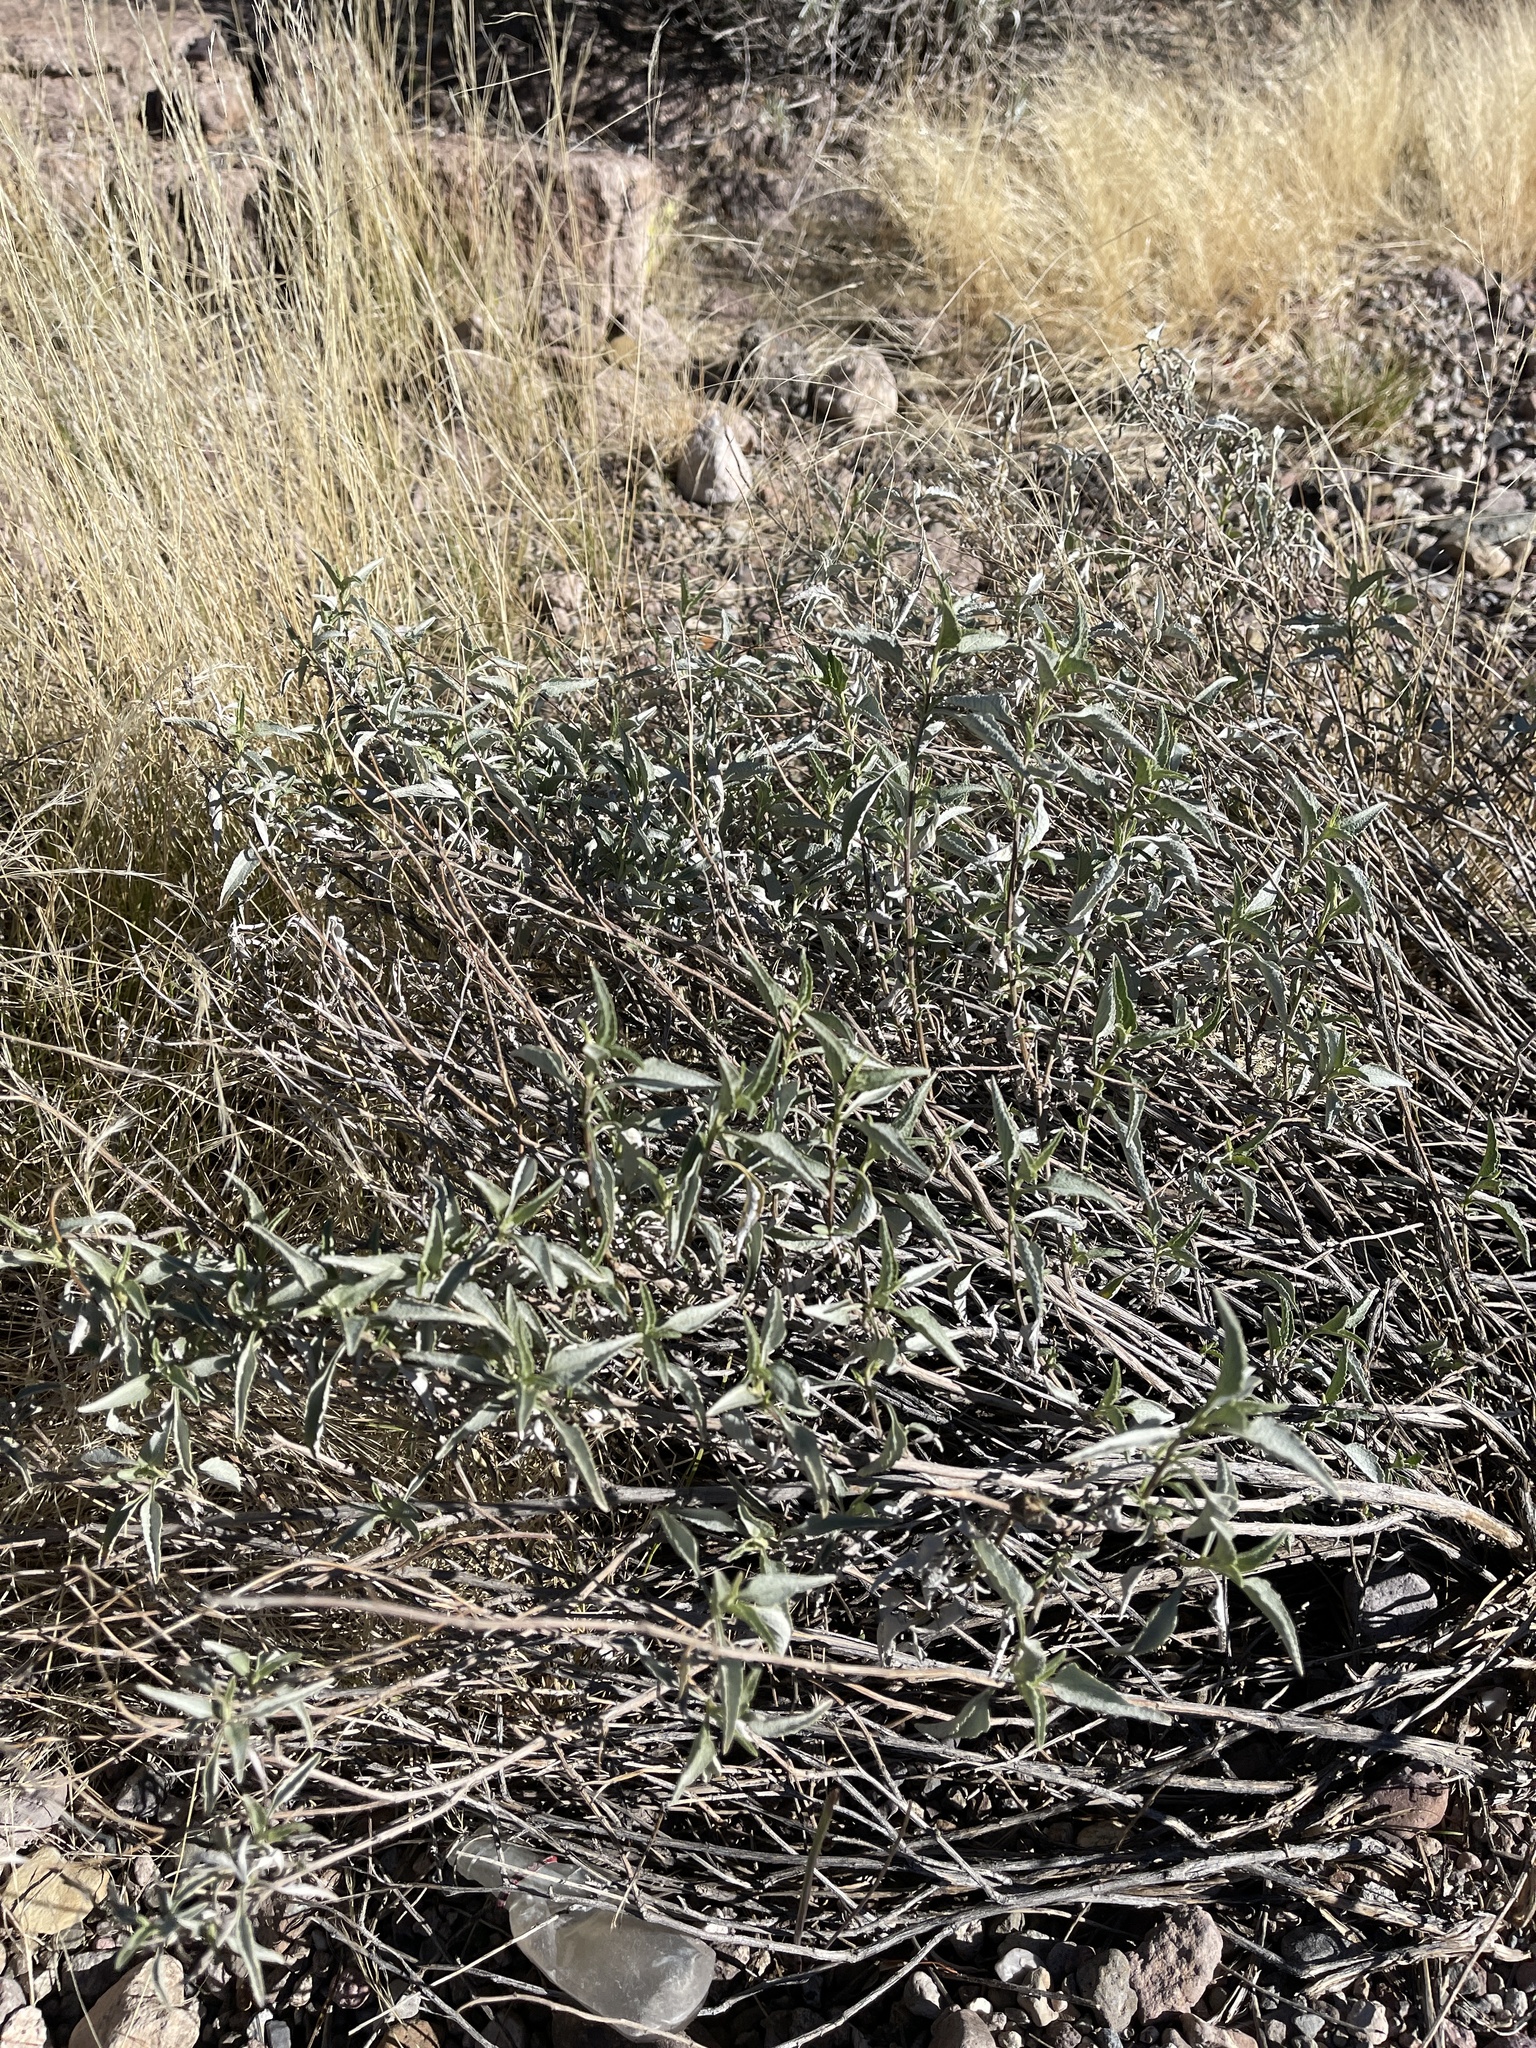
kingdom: Plantae
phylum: Tracheophyta
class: Magnoliopsida
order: Asterales
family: Asteraceae
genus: Ambrosia
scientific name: Ambrosia deltoidea
